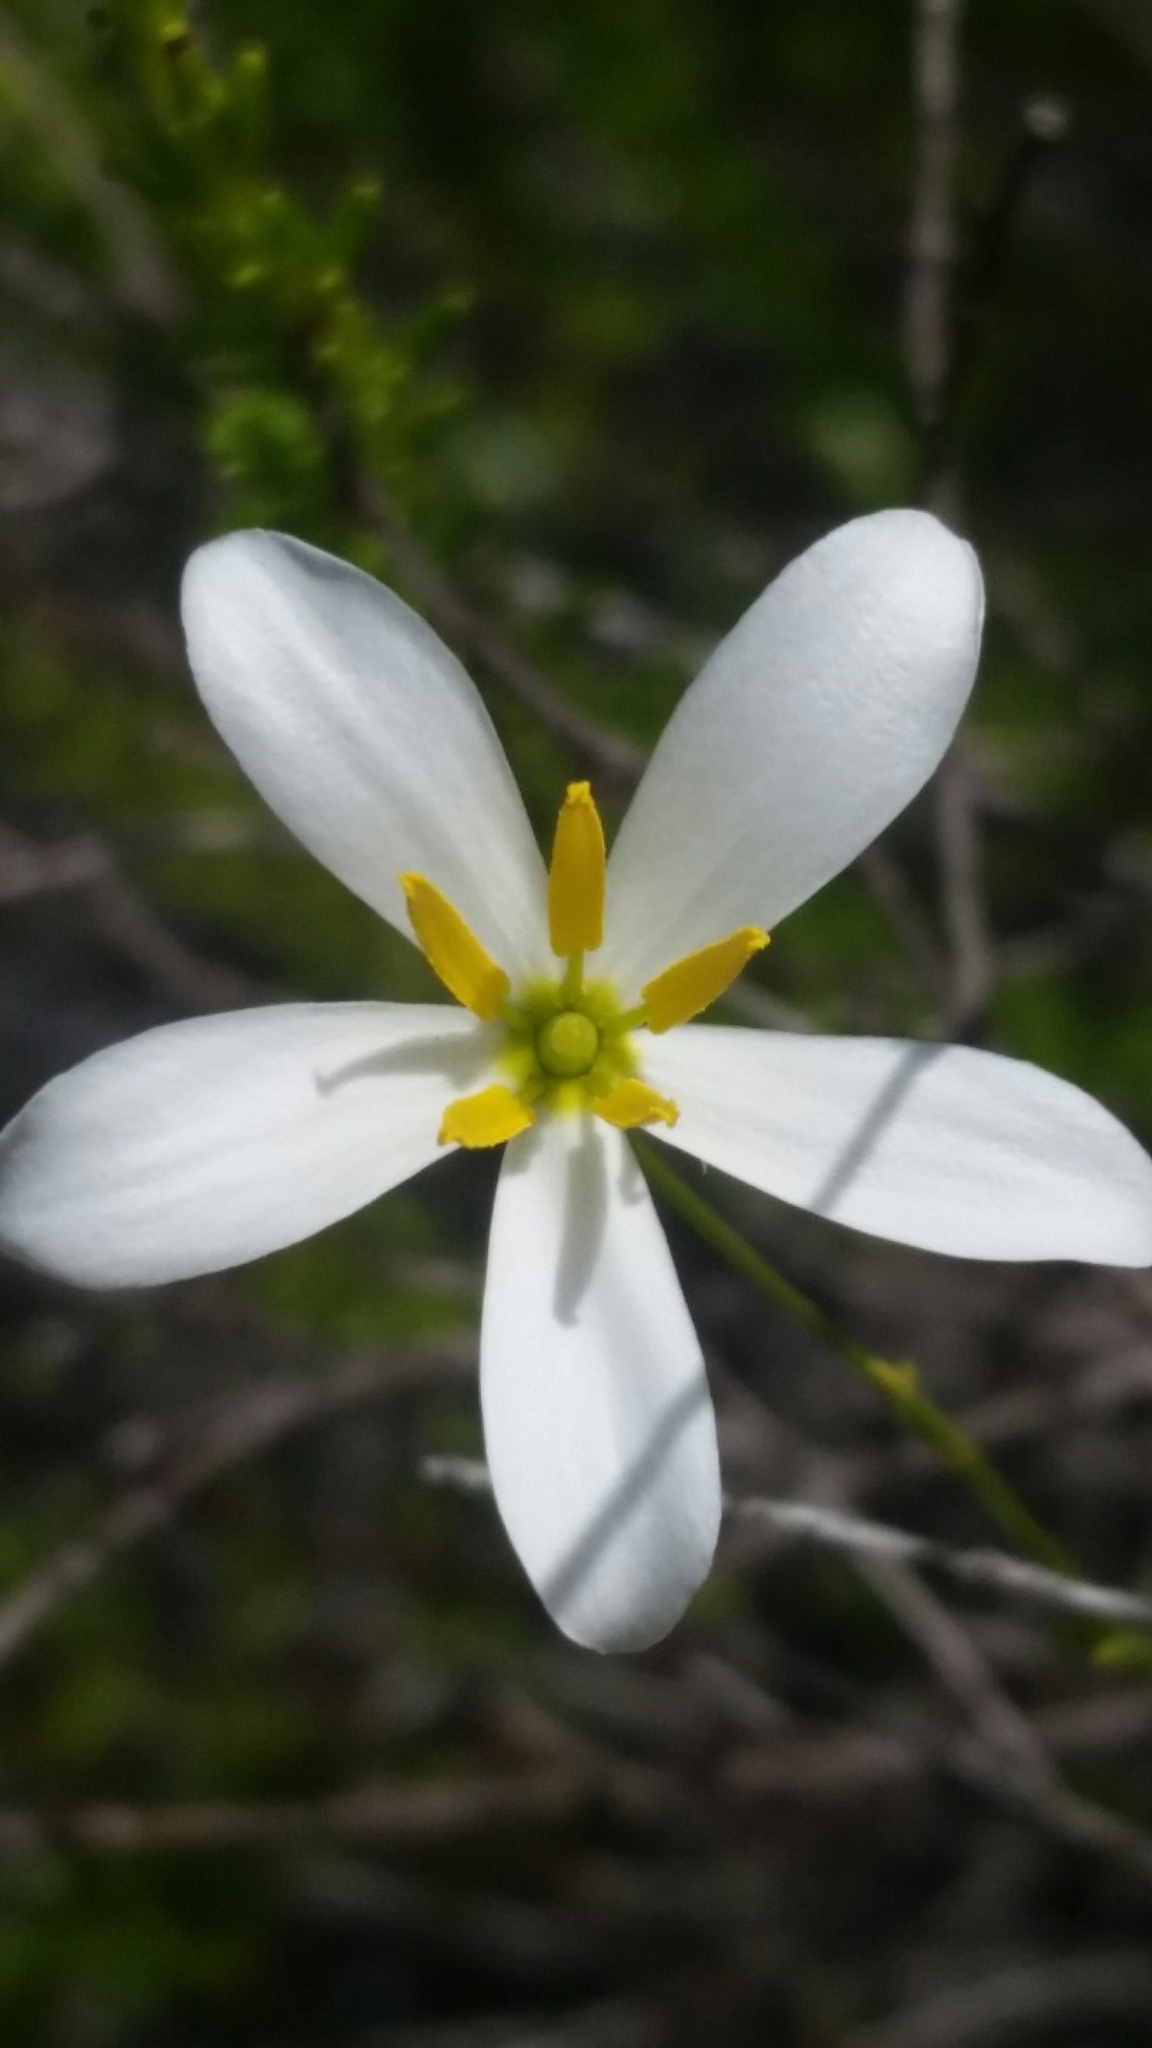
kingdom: Plantae
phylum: Tracheophyta
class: Magnoliopsida
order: Gentianales
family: Gentianaceae
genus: Sabatia
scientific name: Sabatia brevifolia
